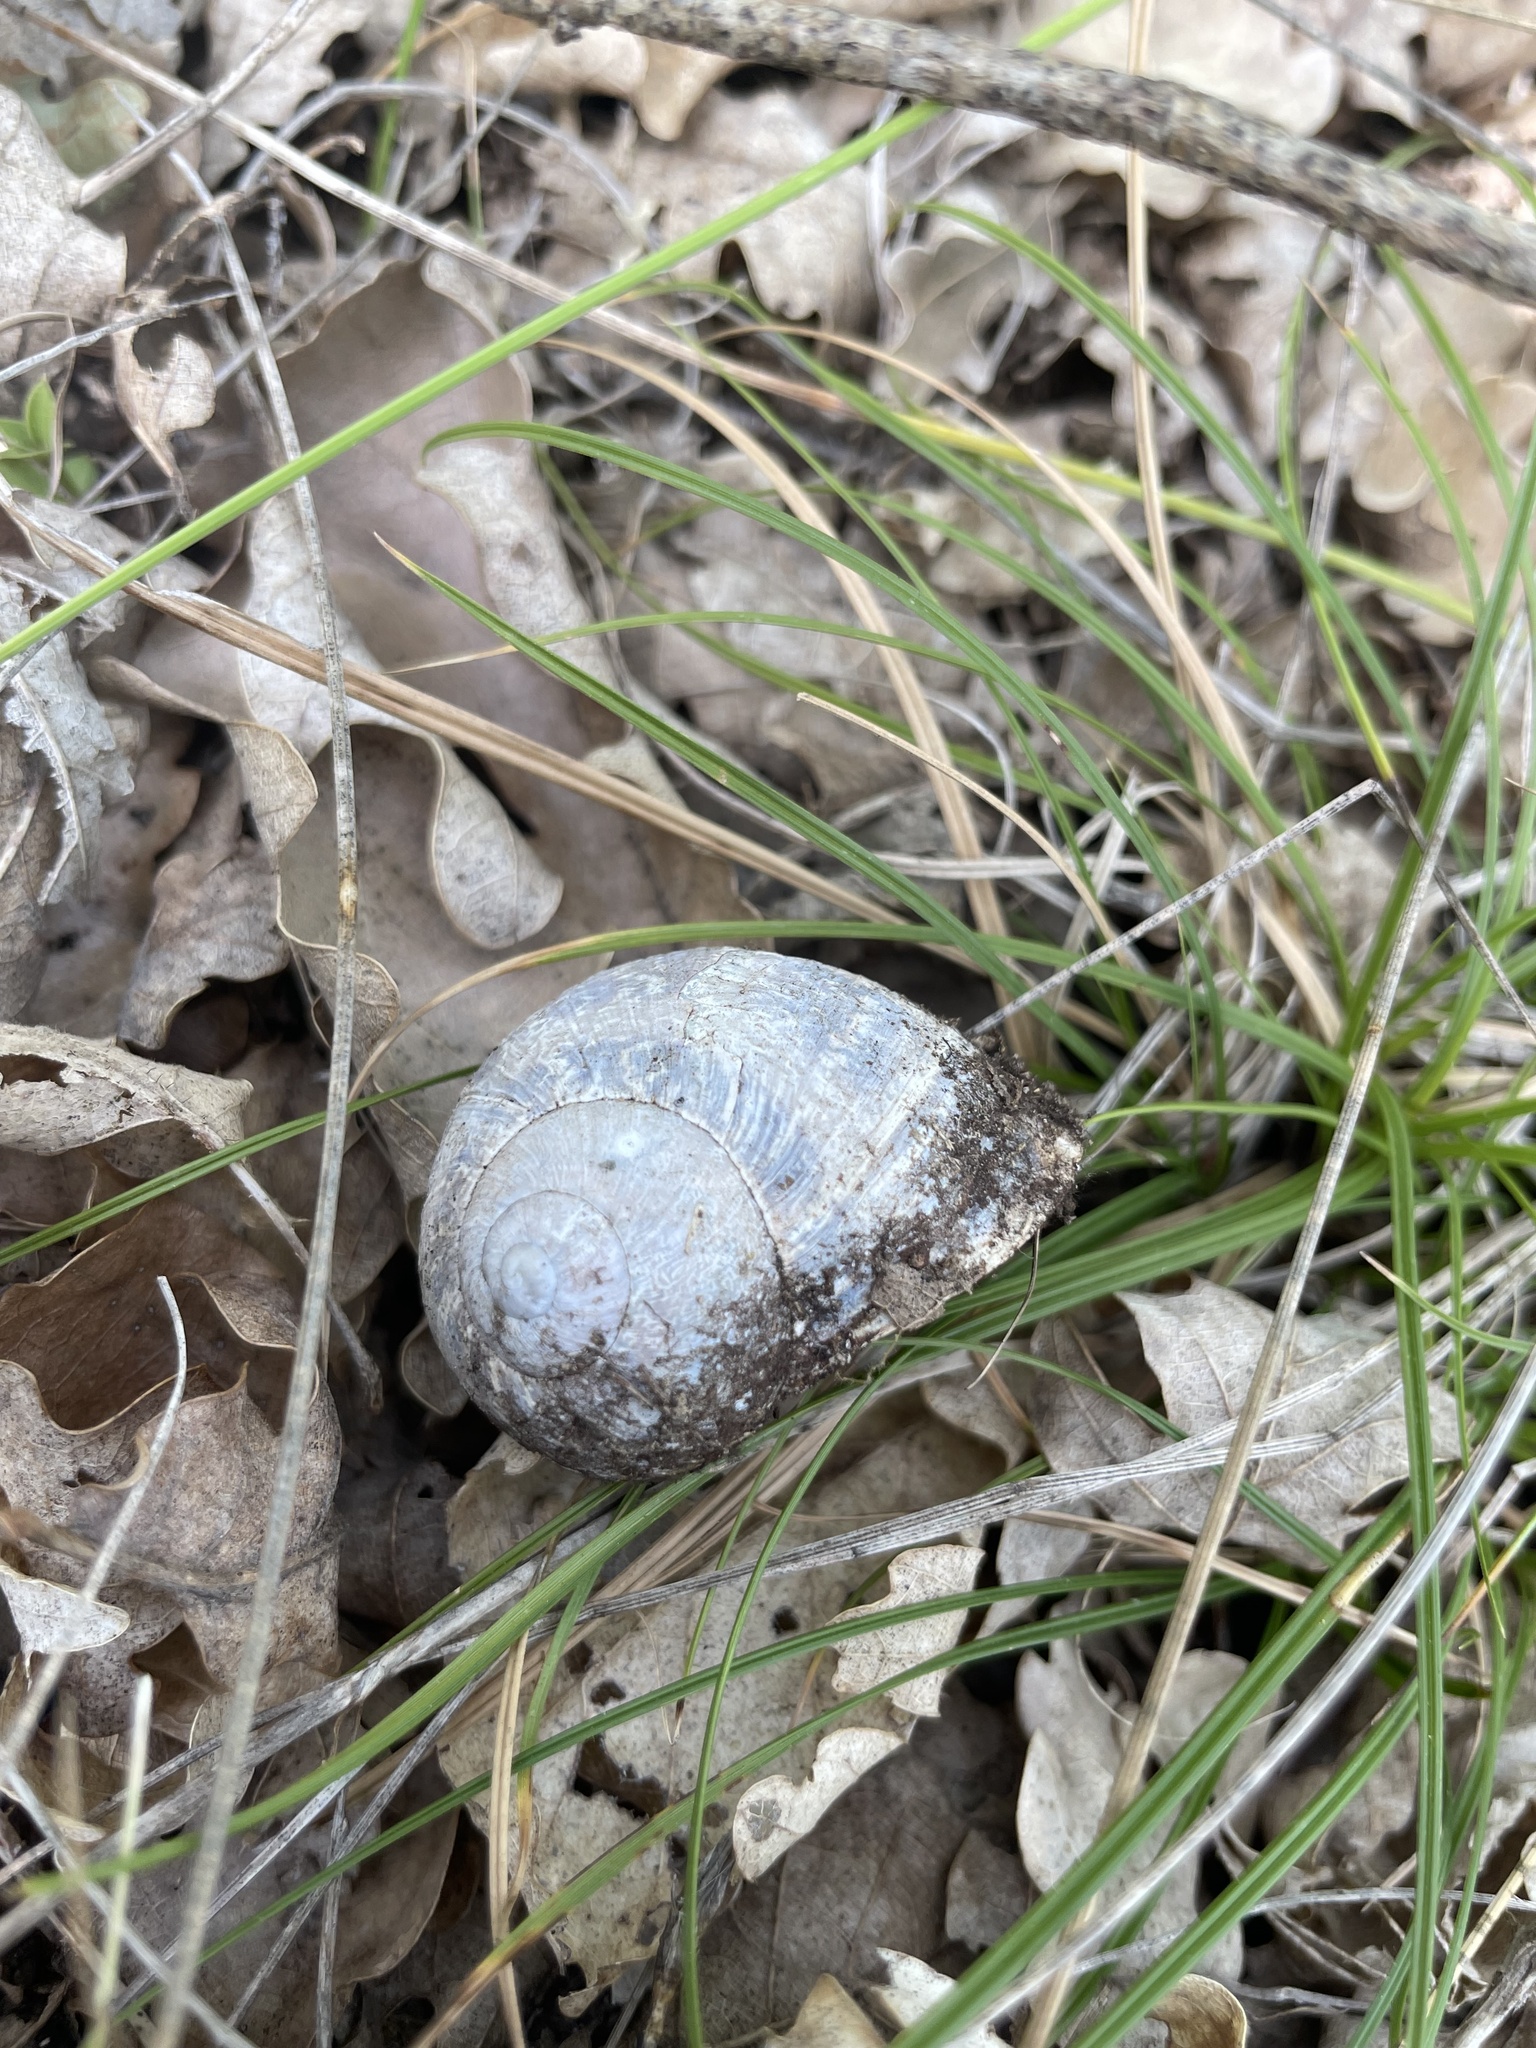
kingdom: Animalia
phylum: Mollusca
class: Gastropoda
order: Stylommatophora
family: Helicidae
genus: Cornu
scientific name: Cornu aspersum
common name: Brown garden snail
